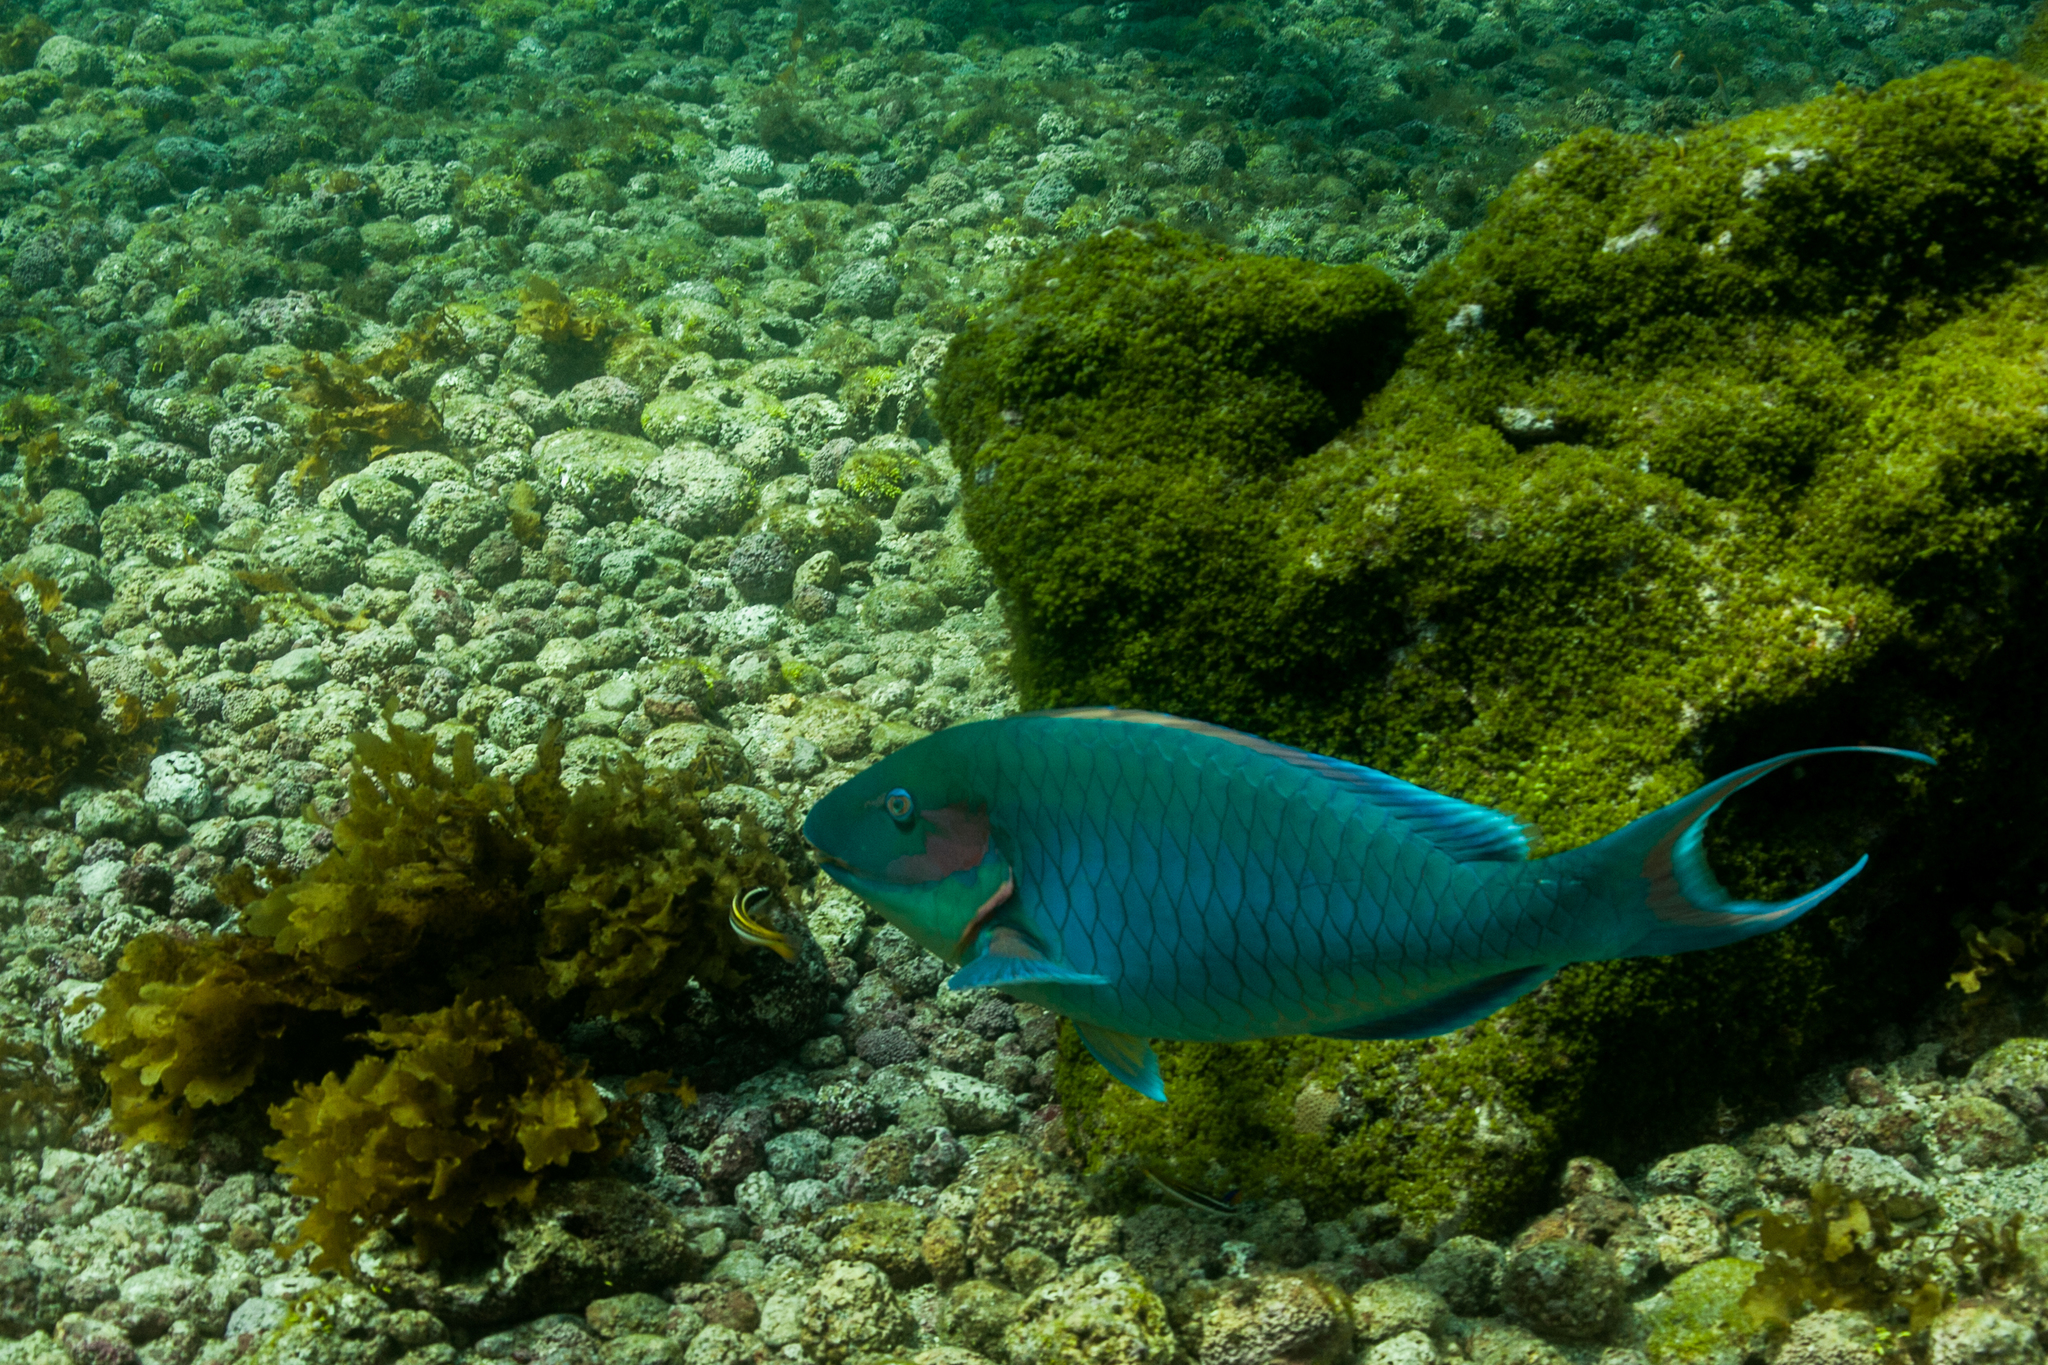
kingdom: Animalia
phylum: Chordata
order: Perciformes
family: Scaridae
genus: Sparisoma
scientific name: Sparisoma viride
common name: Stoplight parrotfish
